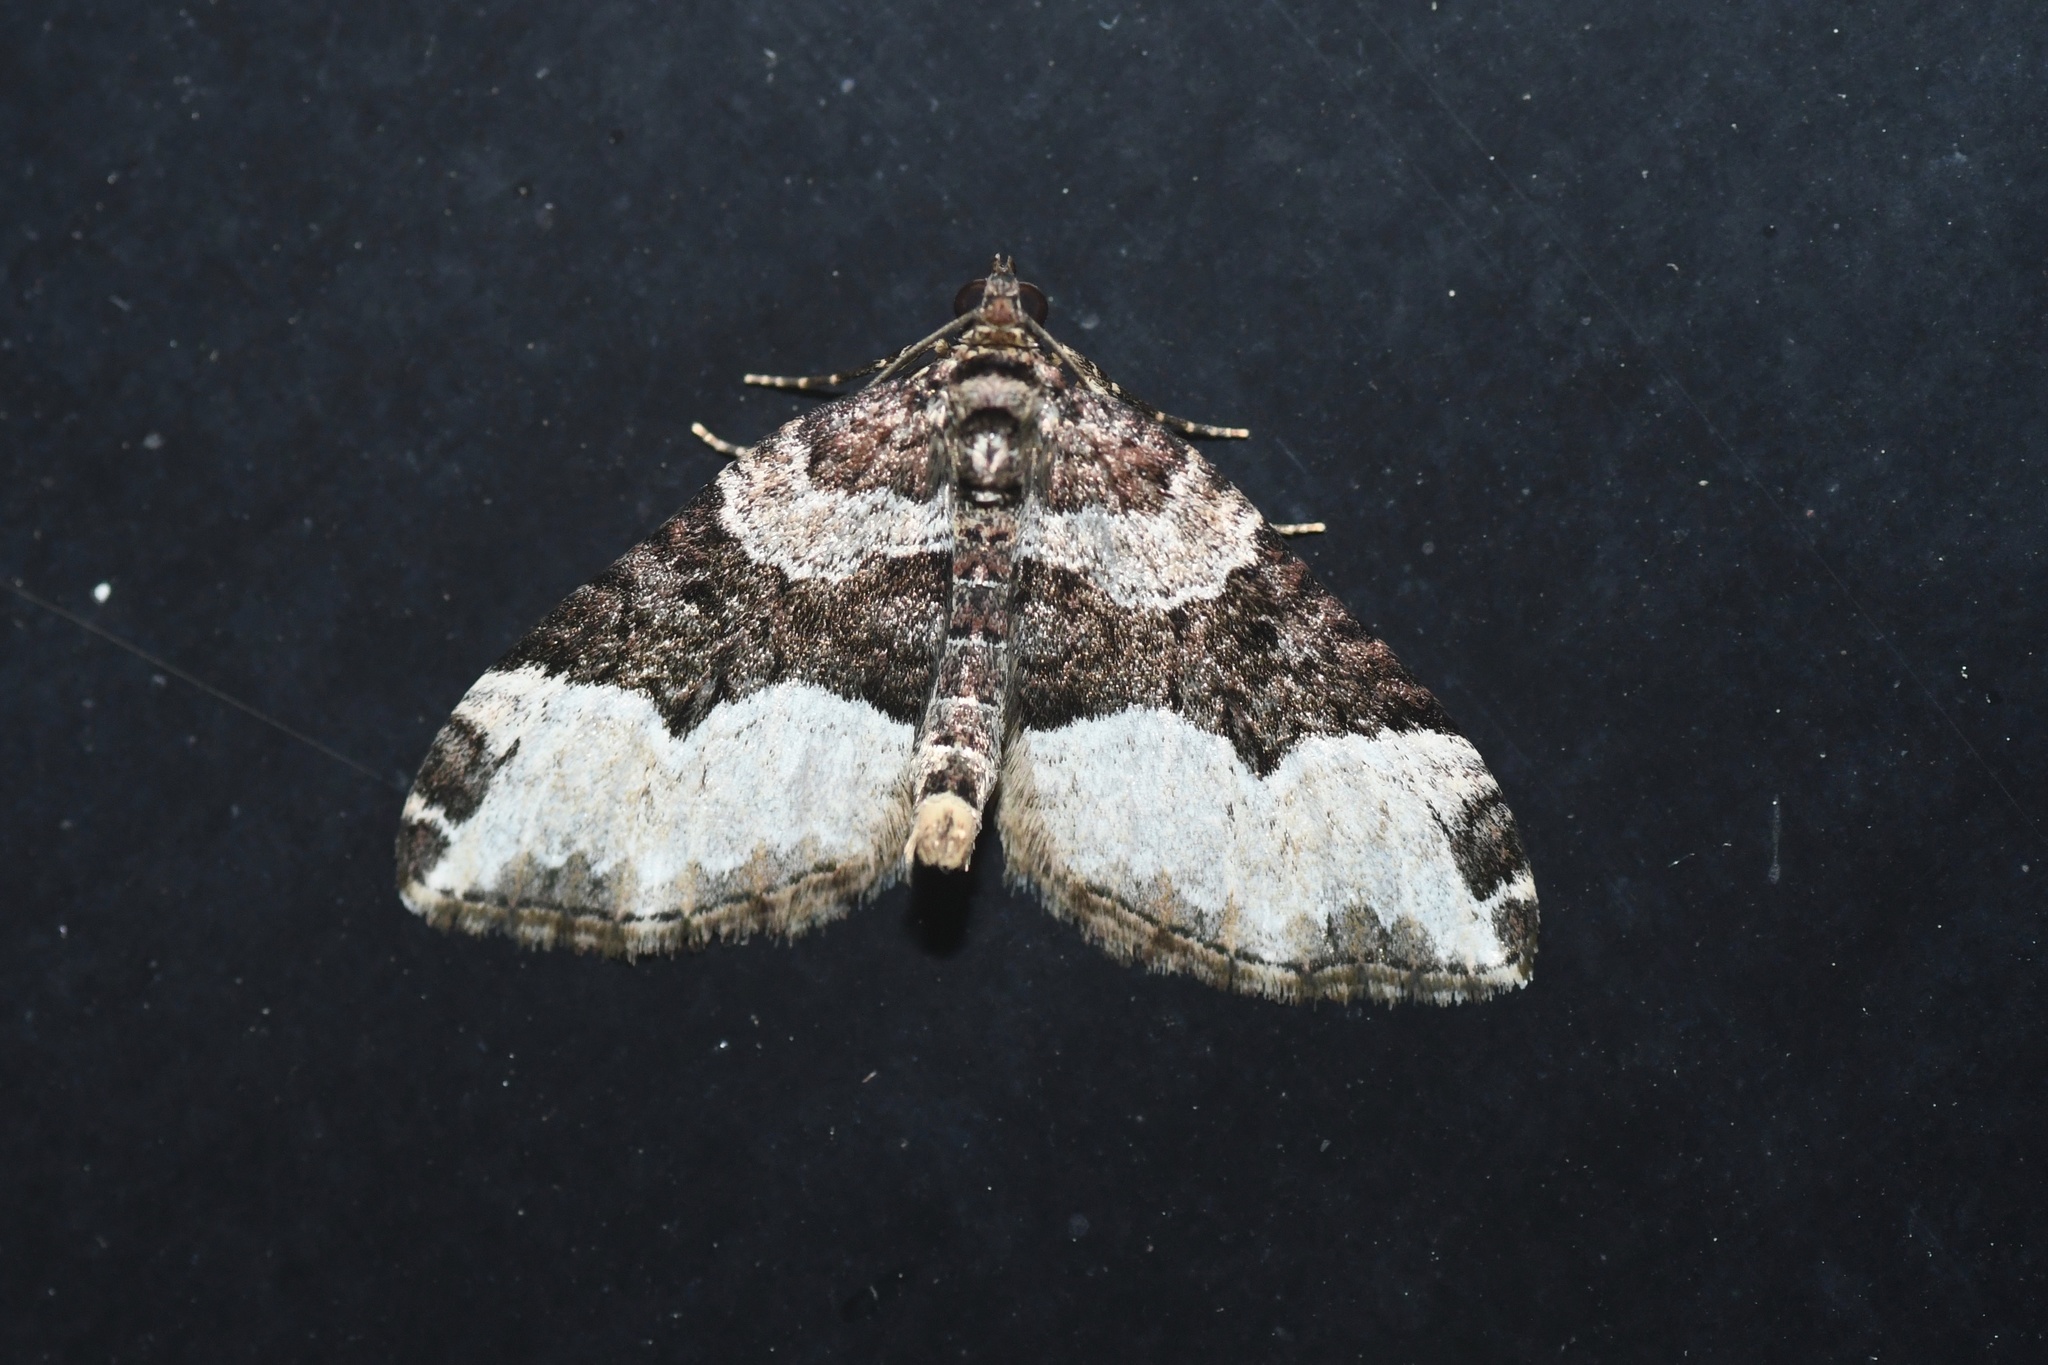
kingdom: Animalia
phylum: Arthropoda
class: Insecta
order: Lepidoptera
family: Geometridae
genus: Euphyia
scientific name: Euphyia intermediata
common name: Sharp-angled carpet
